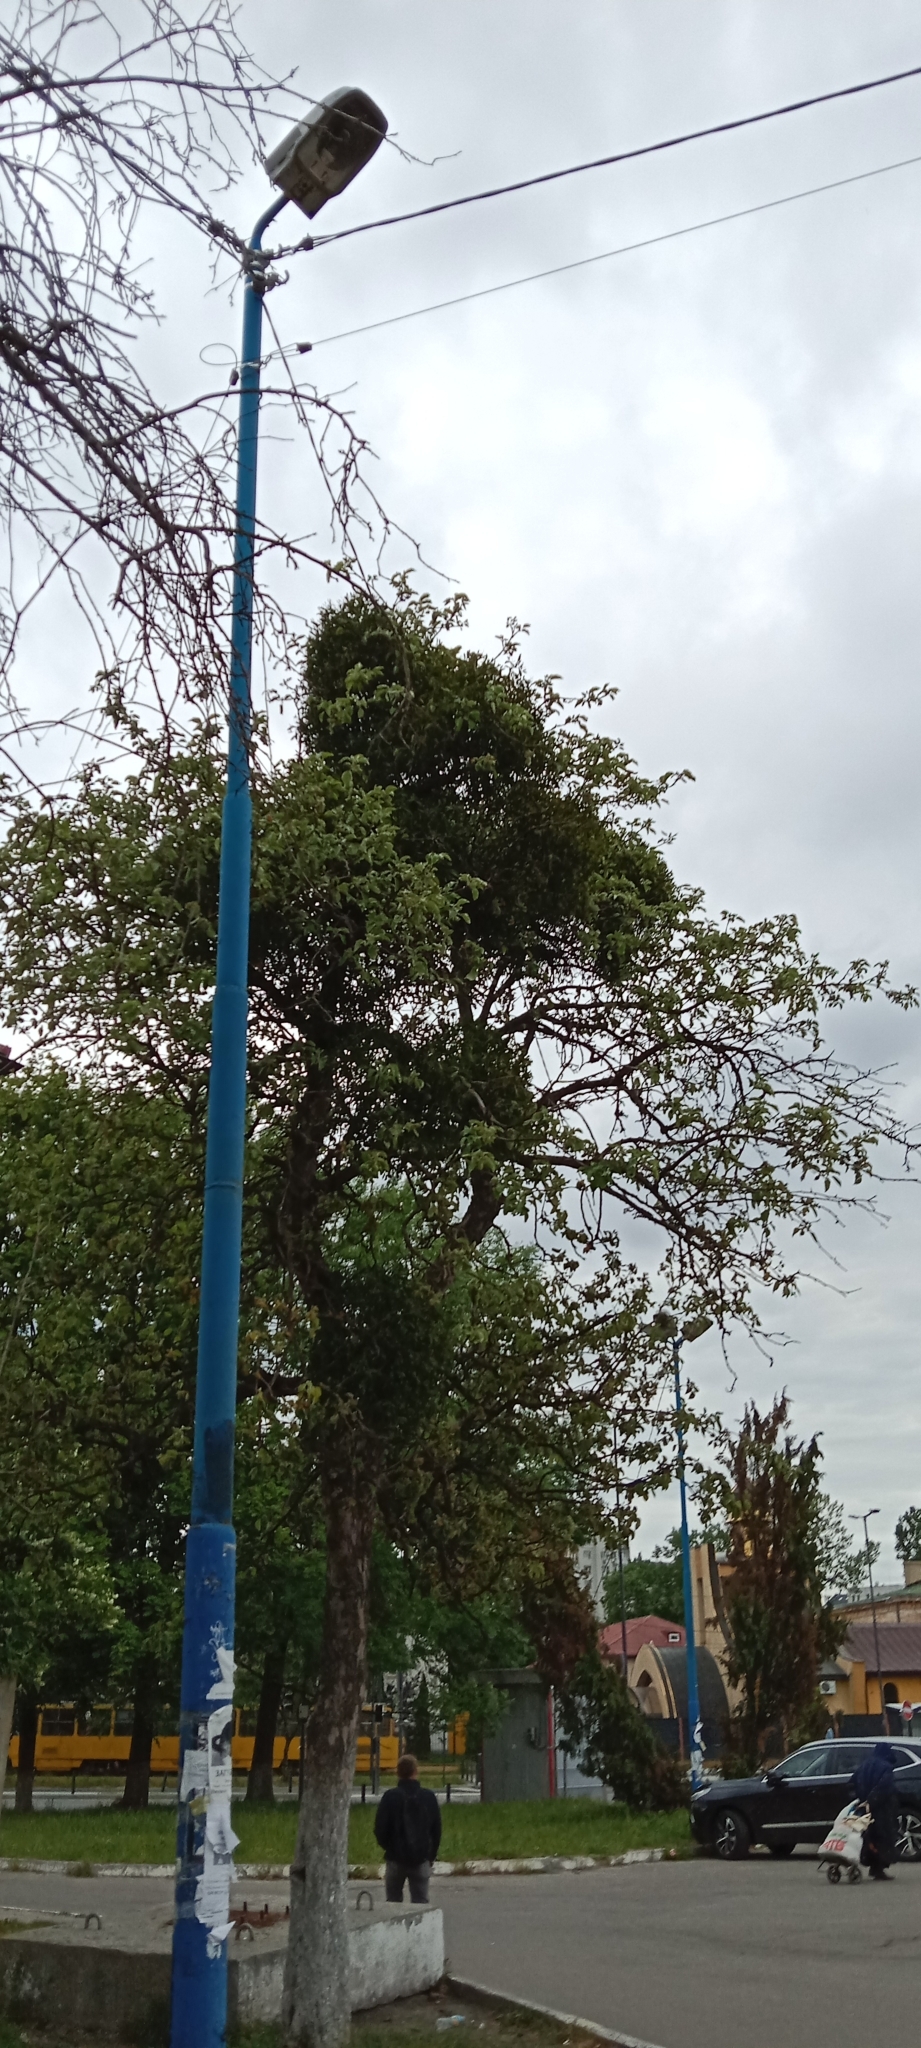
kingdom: Plantae
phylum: Tracheophyta
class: Magnoliopsida
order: Santalales
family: Viscaceae
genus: Viscum
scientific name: Viscum album
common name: Mistletoe
